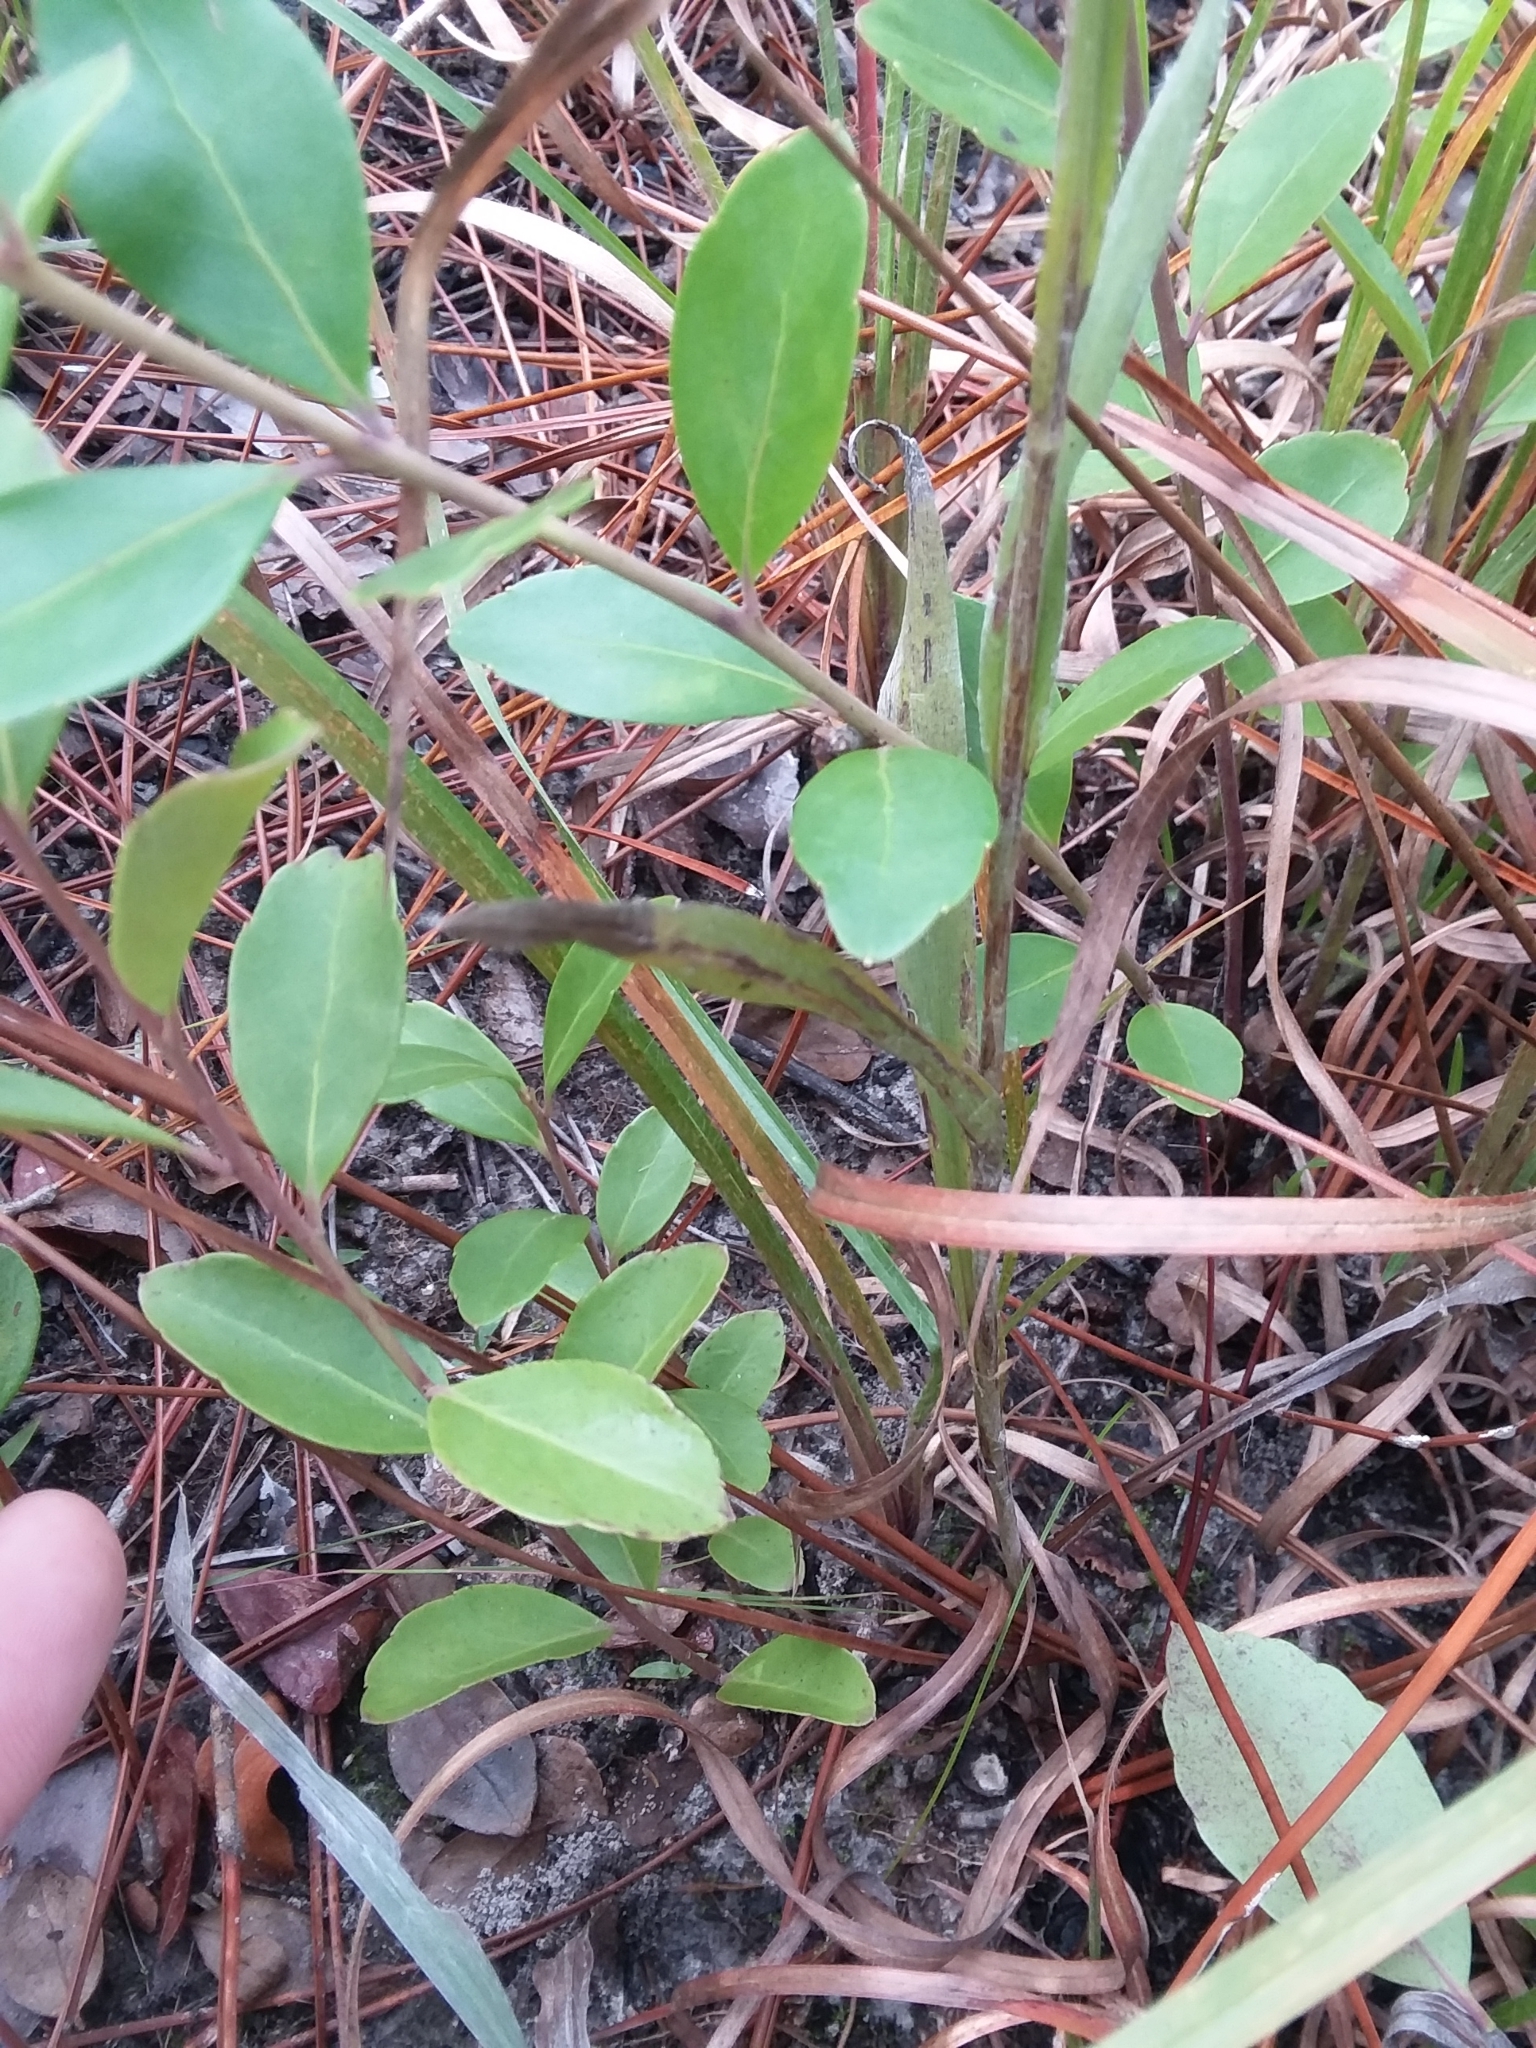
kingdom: Plantae
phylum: Tracheophyta
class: Magnoliopsida
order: Asterales
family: Asteraceae
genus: Pityopsis
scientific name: Pityopsis graminifolia
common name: Grass-leaf golden-aster
